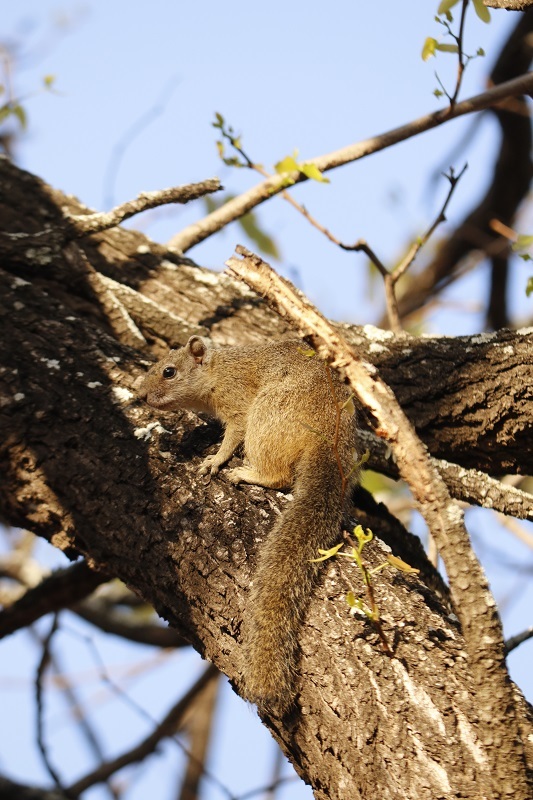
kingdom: Animalia
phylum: Chordata
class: Mammalia
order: Rodentia
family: Sciuridae
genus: Paraxerus
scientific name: Paraxerus cepapi
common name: Smith's bush squirrel
